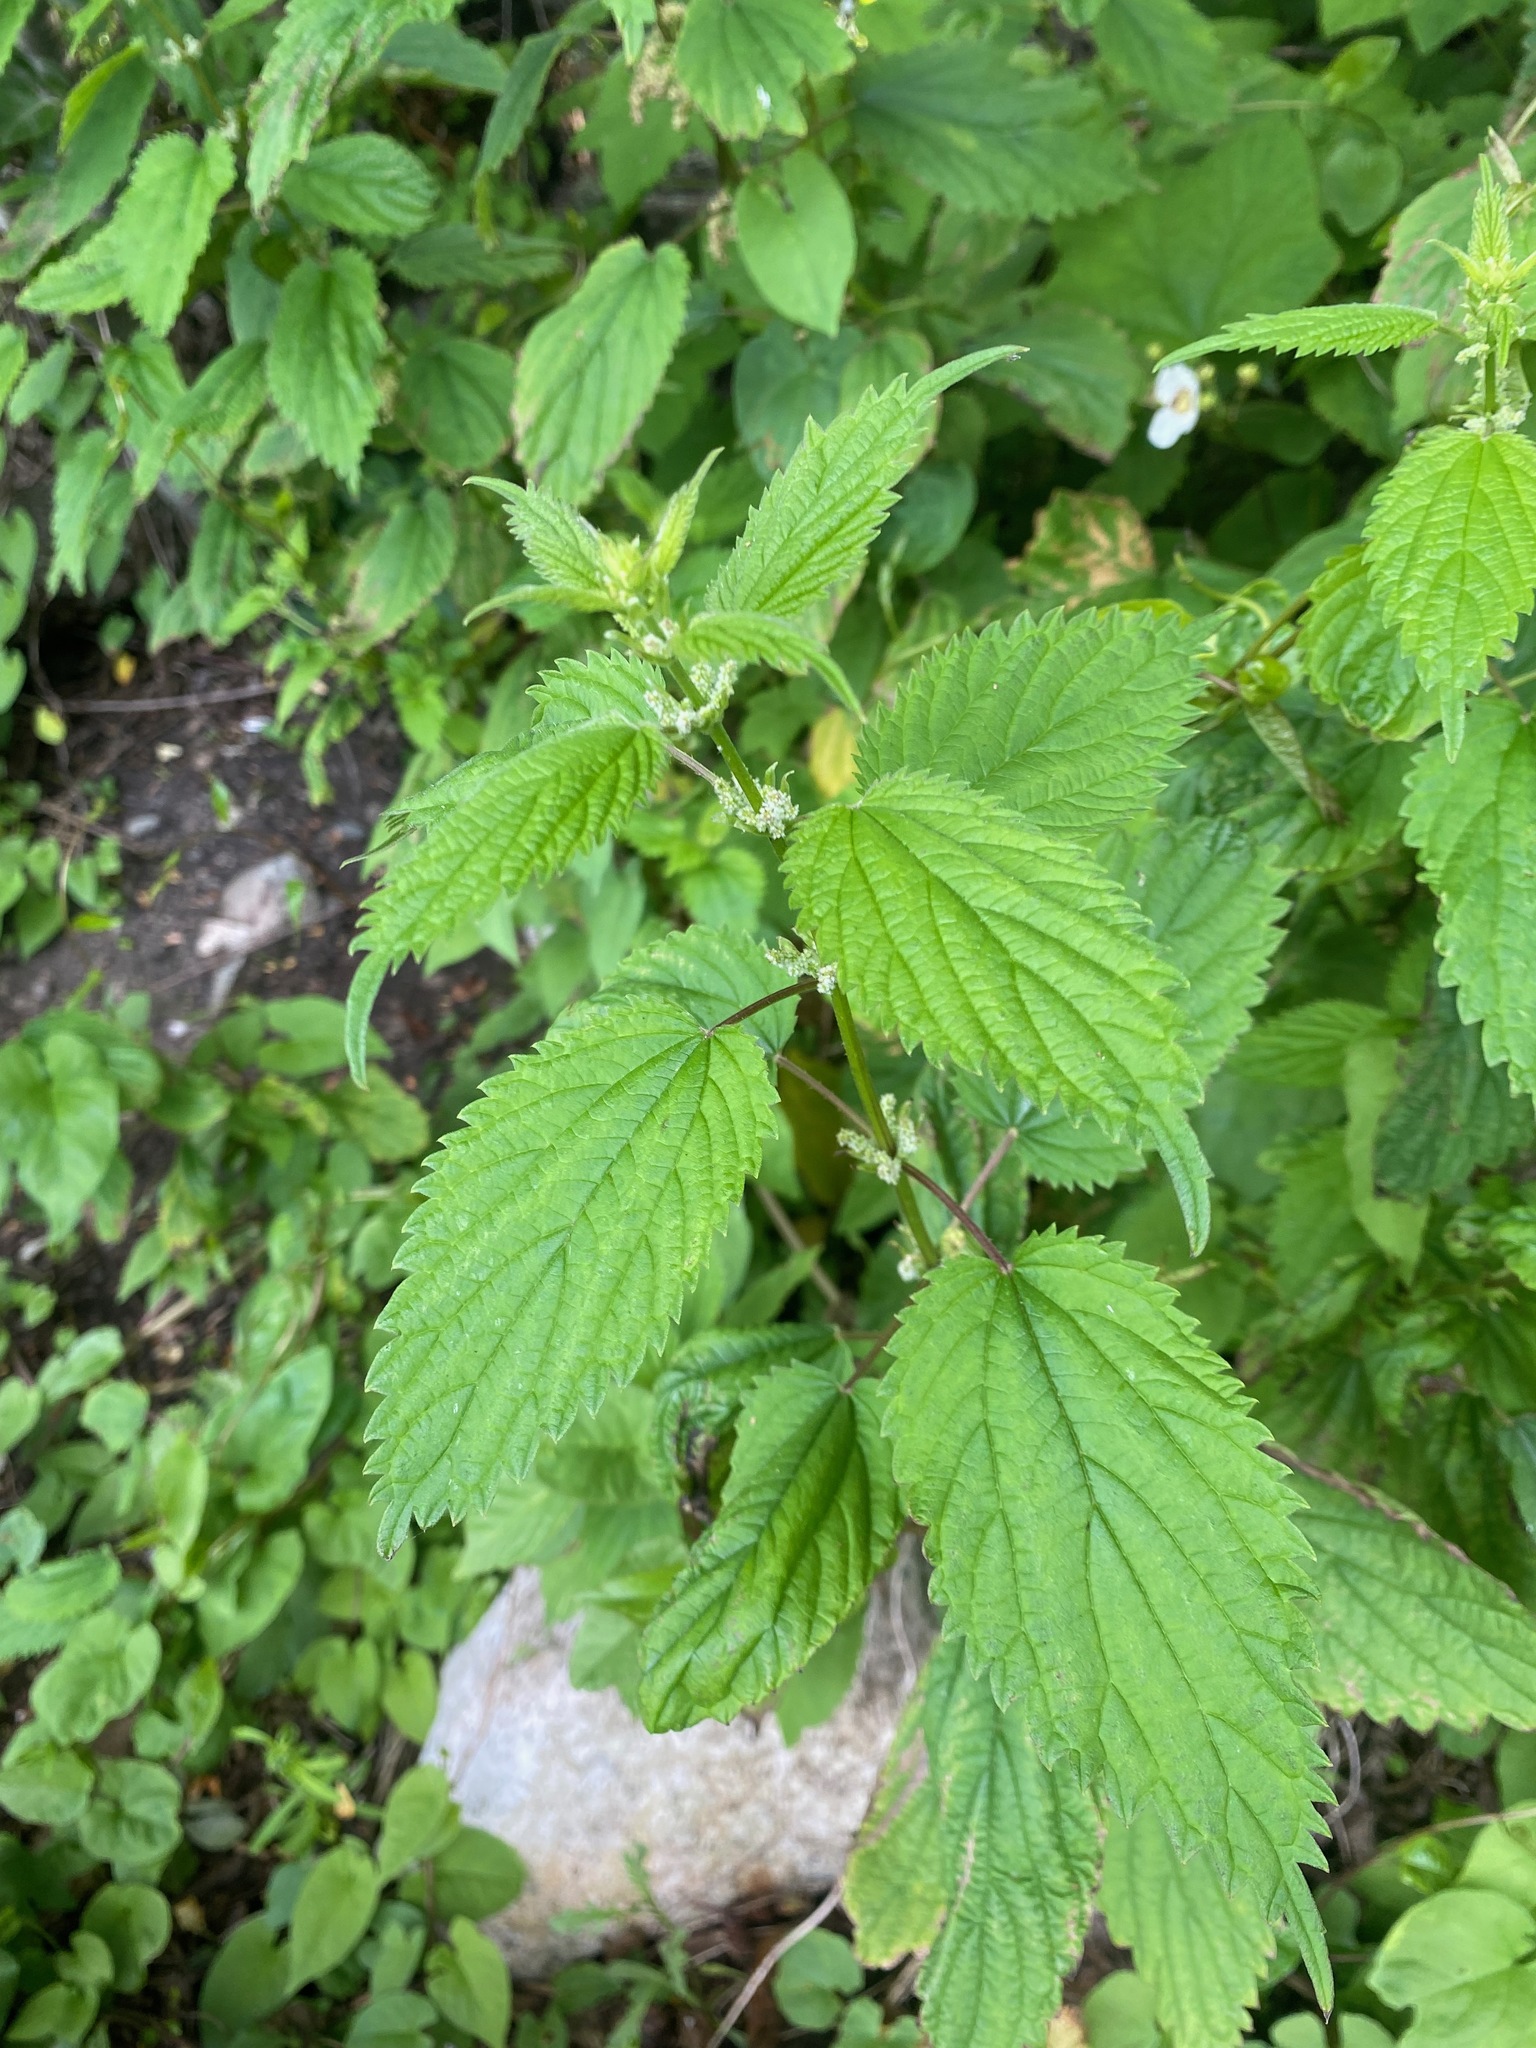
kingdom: Plantae
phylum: Tracheophyta
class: Magnoliopsida
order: Rosales
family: Urticaceae
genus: Urtica
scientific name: Urtica dioica
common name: Common nettle
